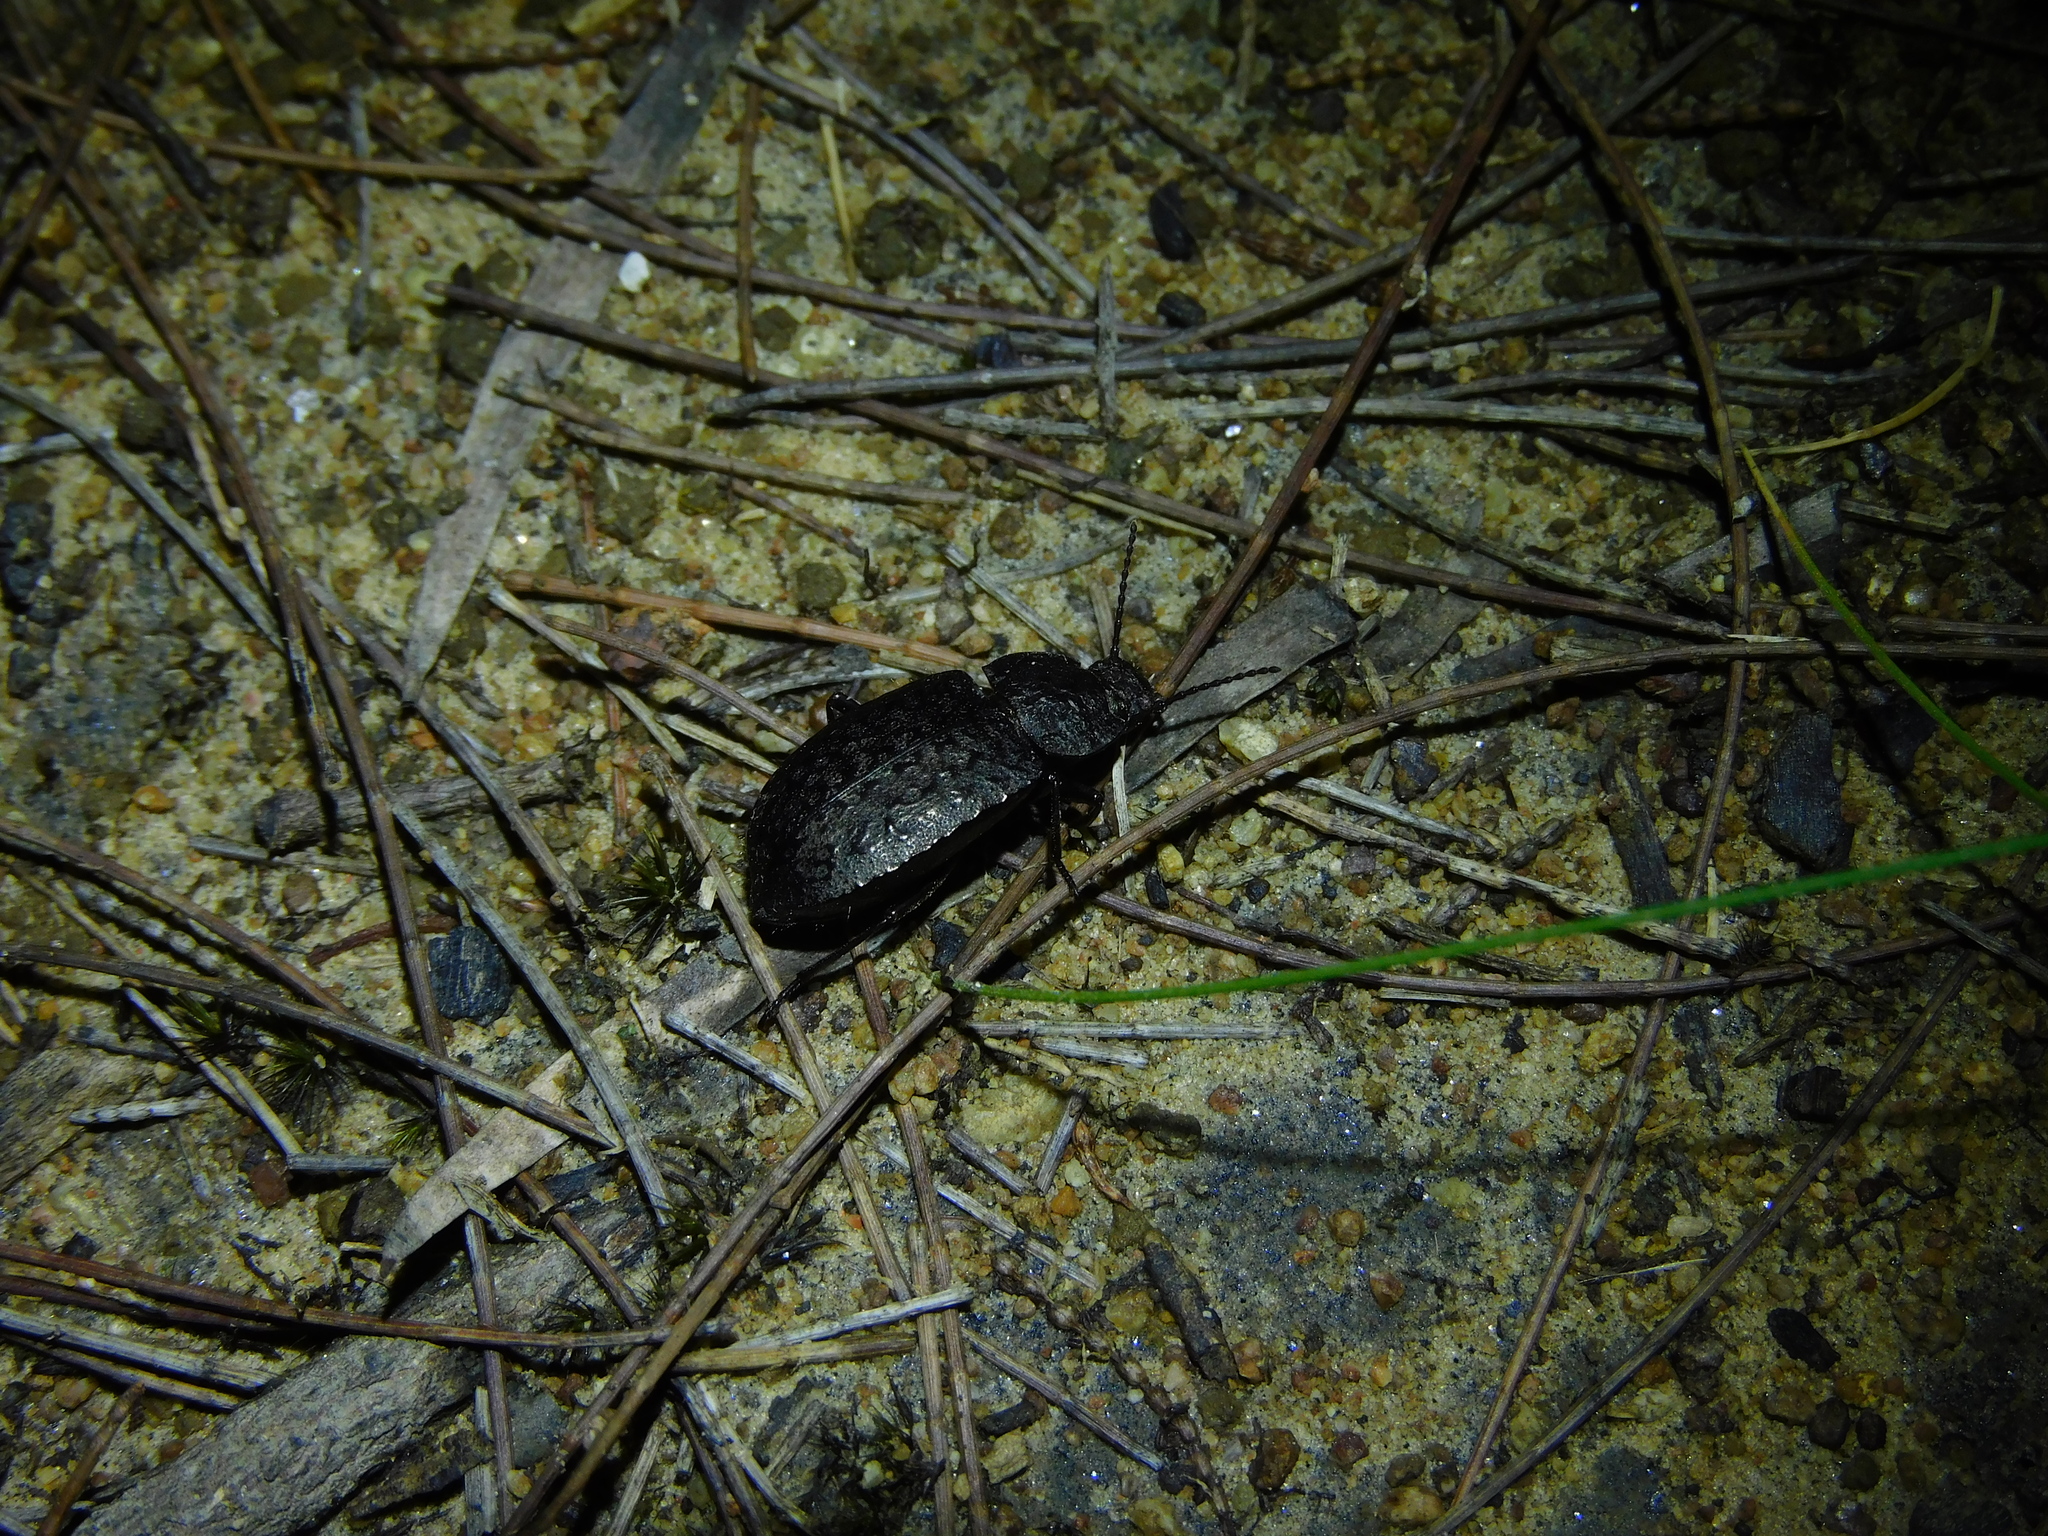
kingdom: Animalia
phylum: Arthropoda
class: Insecta
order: Coleoptera
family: Tenebrionidae
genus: Coripera
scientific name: Coripera deplanata
